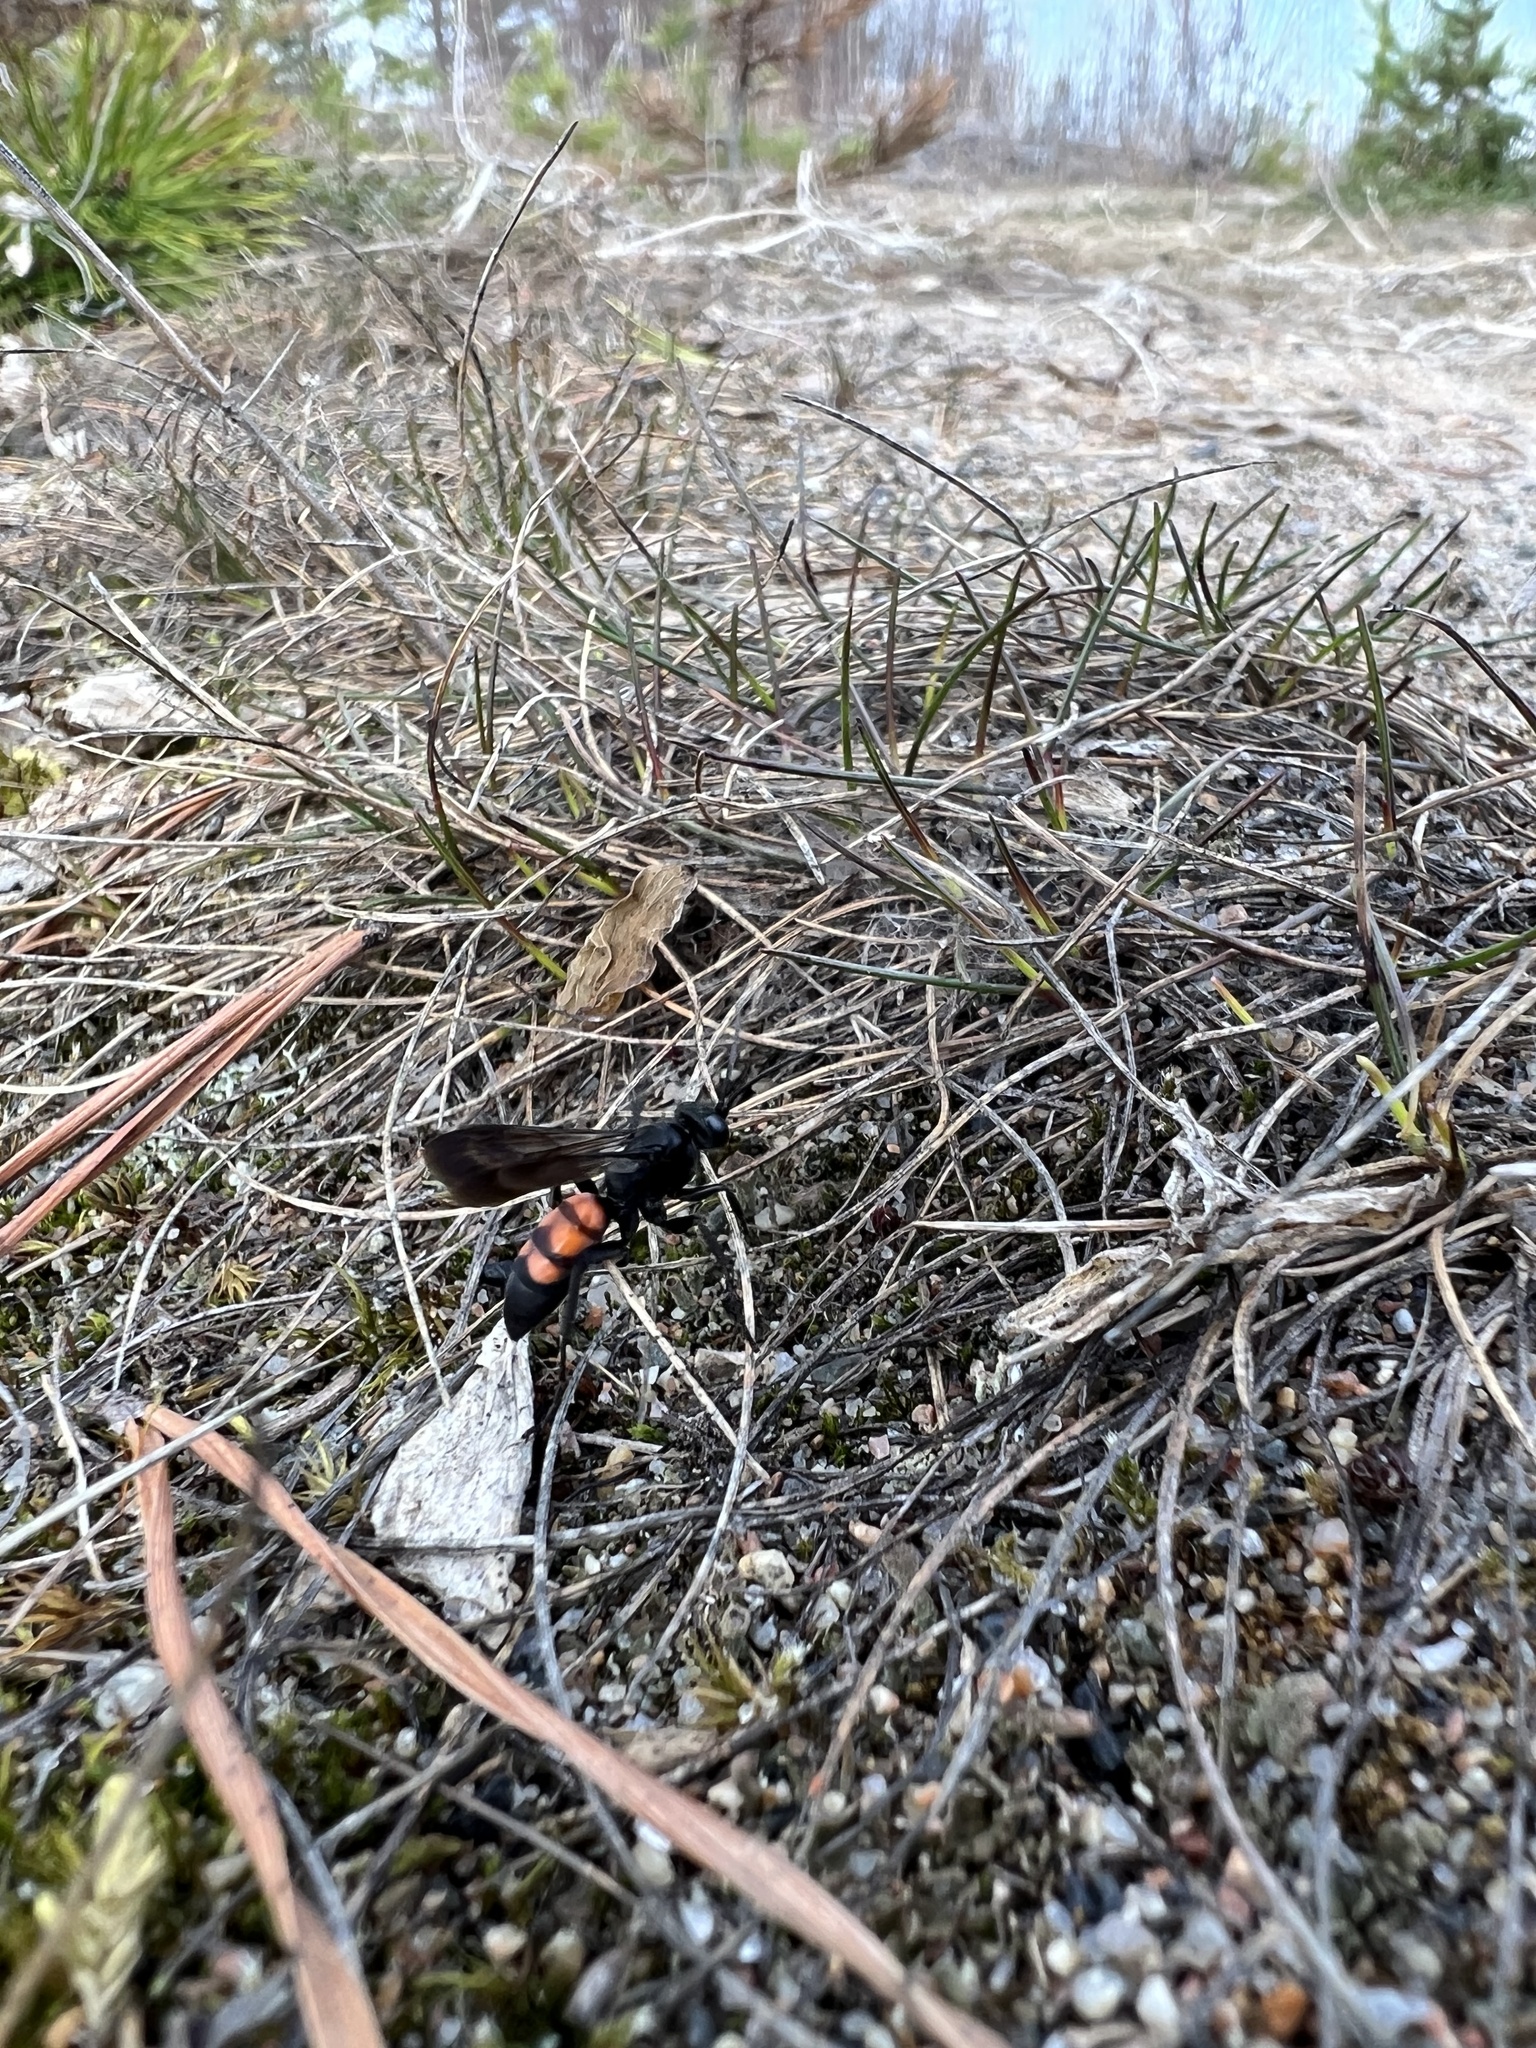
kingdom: Animalia
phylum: Arthropoda
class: Insecta
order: Hymenoptera
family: Pompilidae
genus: Anoplius
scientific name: Anoplius viaticus
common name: Black banded spider wasp
